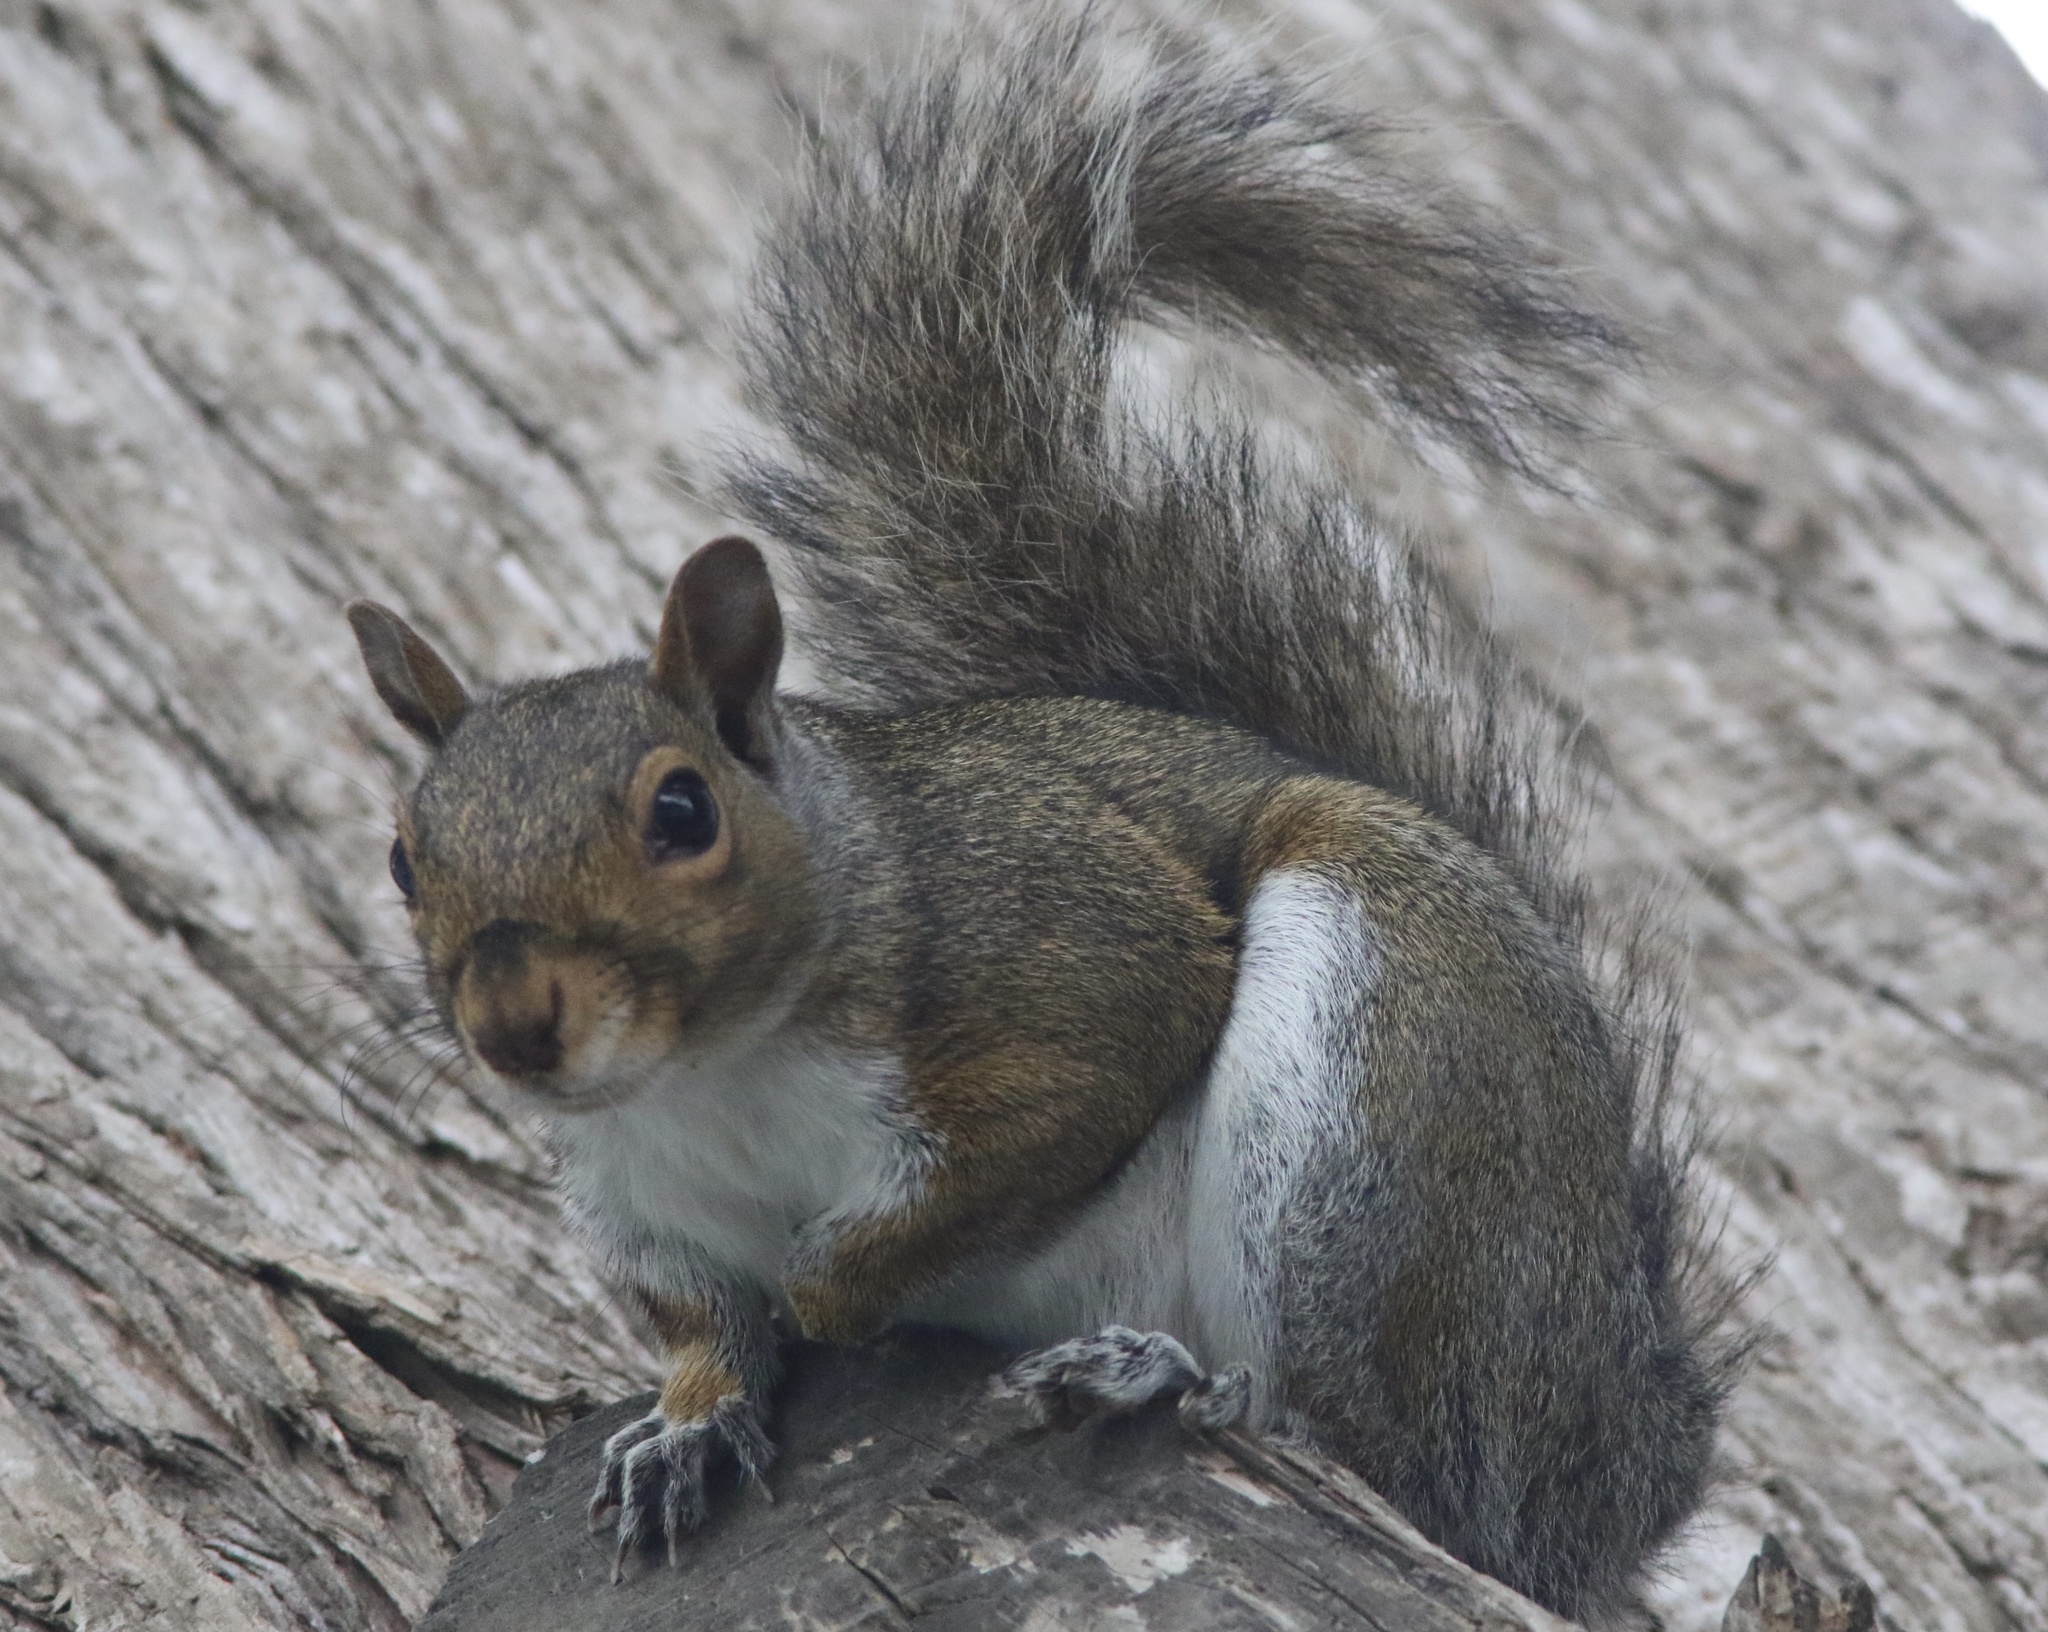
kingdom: Animalia
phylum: Chordata
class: Mammalia
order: Rodentia
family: Sciuridae
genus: Sciurus
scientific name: Sciurus carolinensis
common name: Eastern gray squirrel
